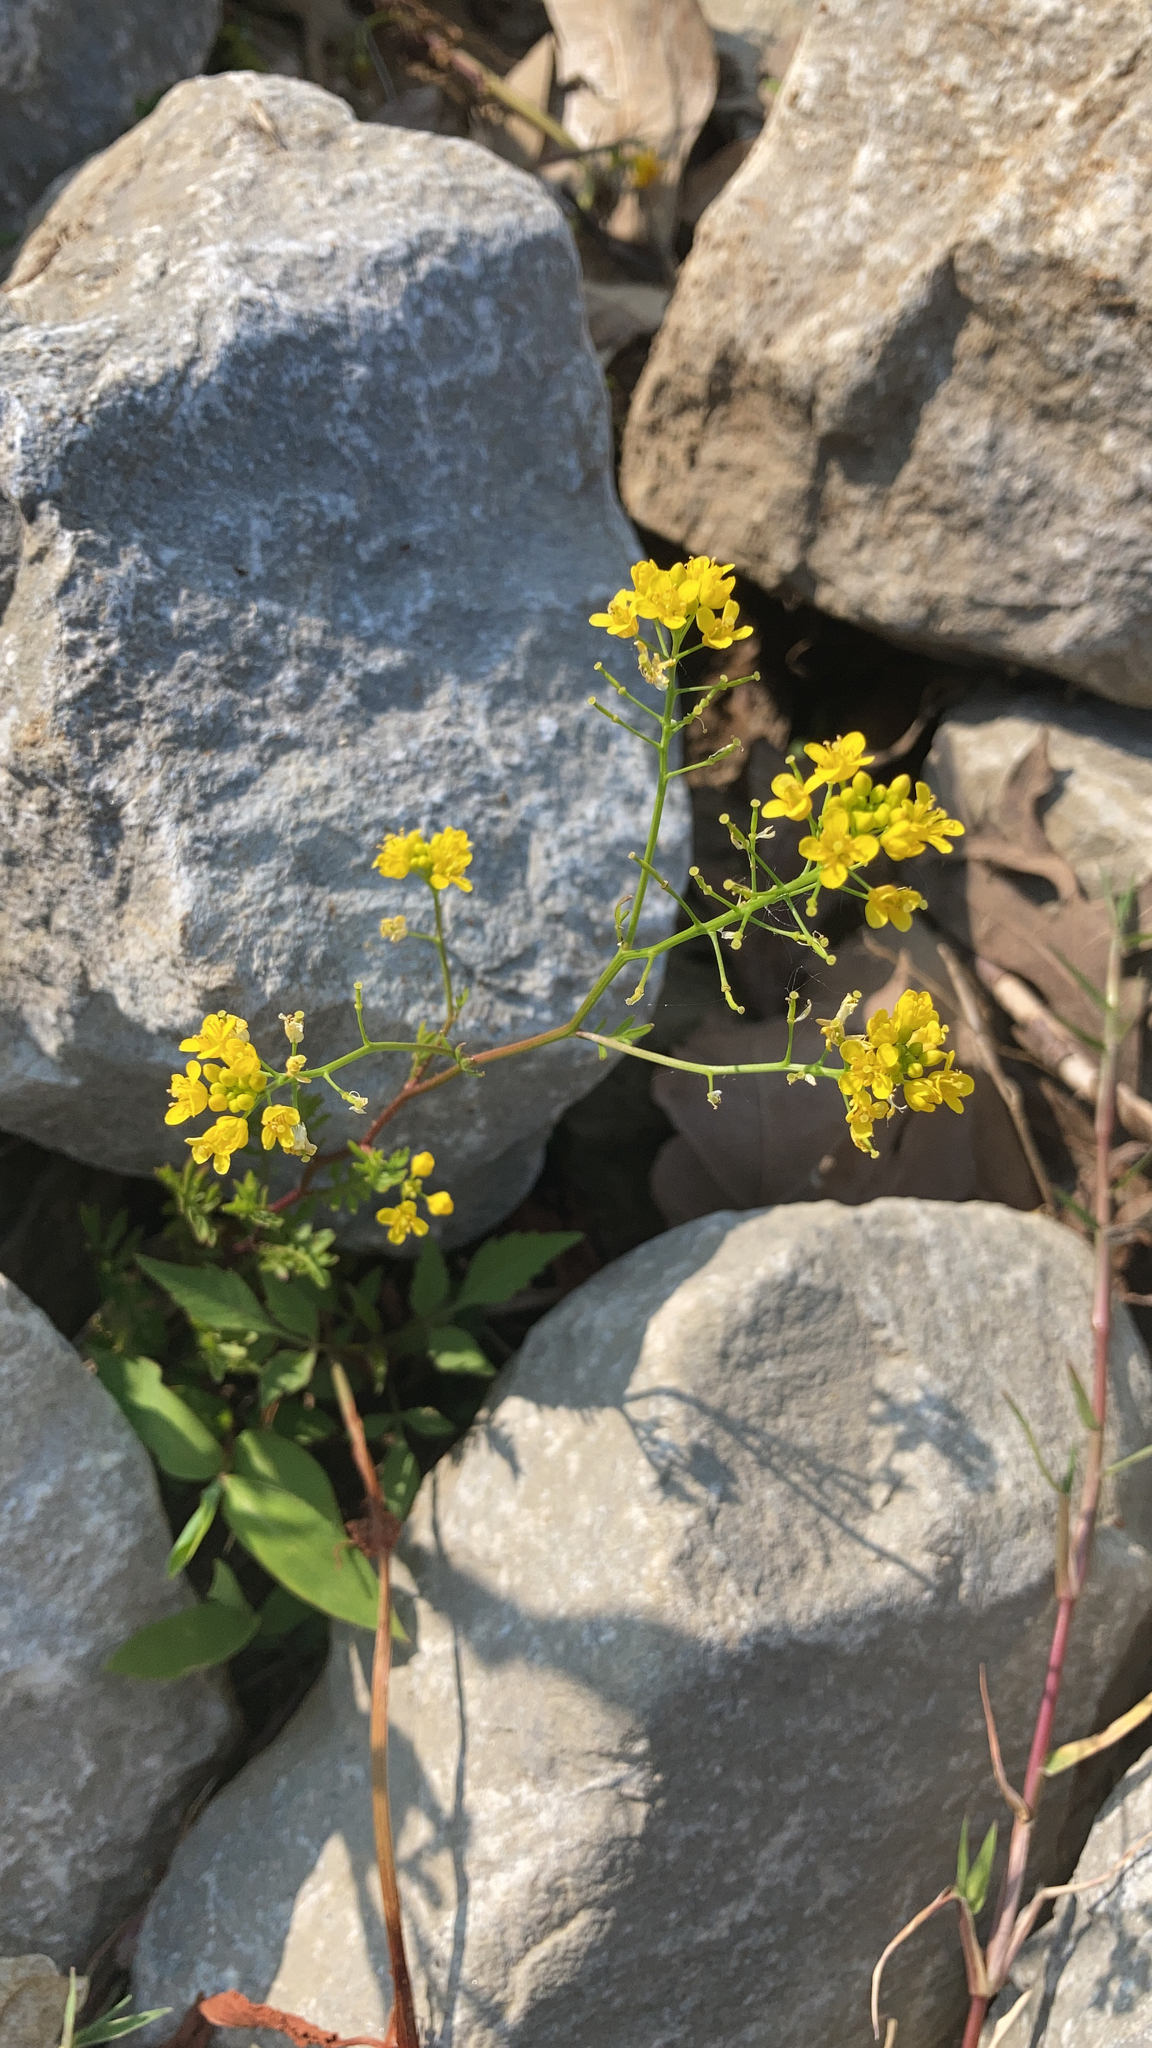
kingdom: Plantae
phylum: Tracheophyta
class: Magnoliopsida
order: Brassicales
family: Brassicaceae
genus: Rorippa
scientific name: Rorippa sylvestris
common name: Creeping yellowcress
